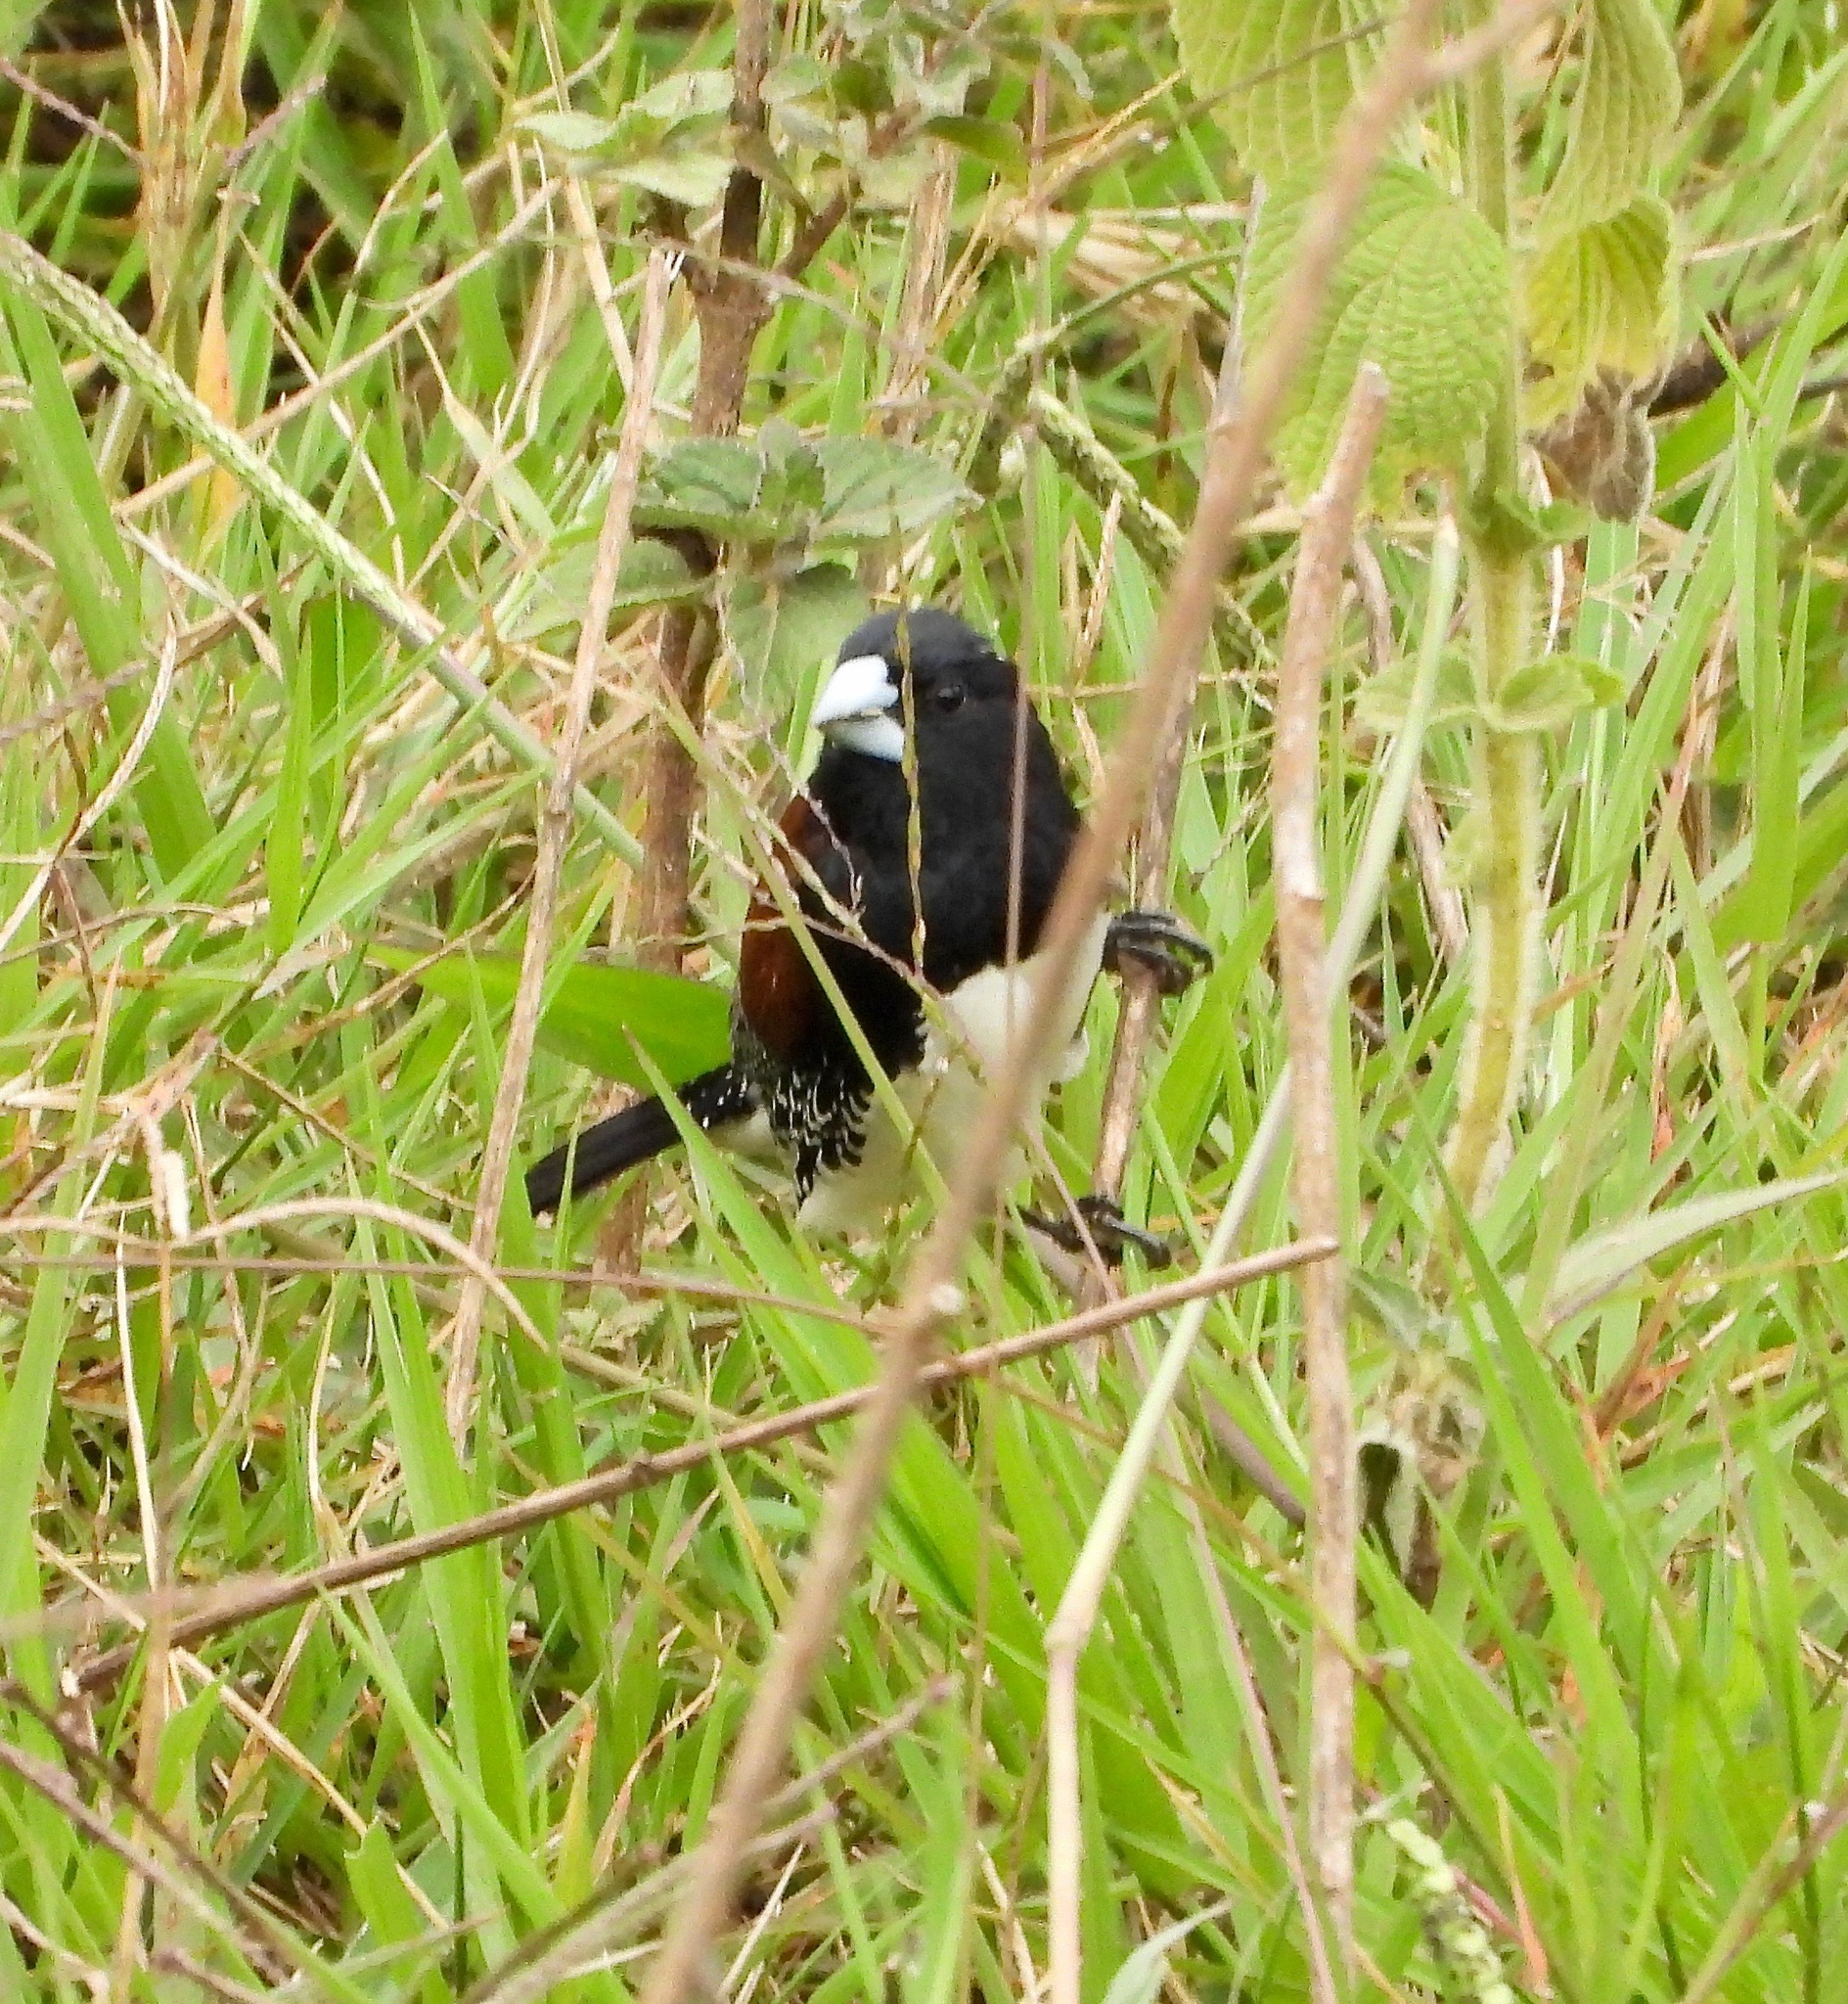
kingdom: Animalia
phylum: Chordata
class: Aves
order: Passeriformes
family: Estrildidae
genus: Lonchura
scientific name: Lonchura bicolor
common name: Black-and-white mannikin
